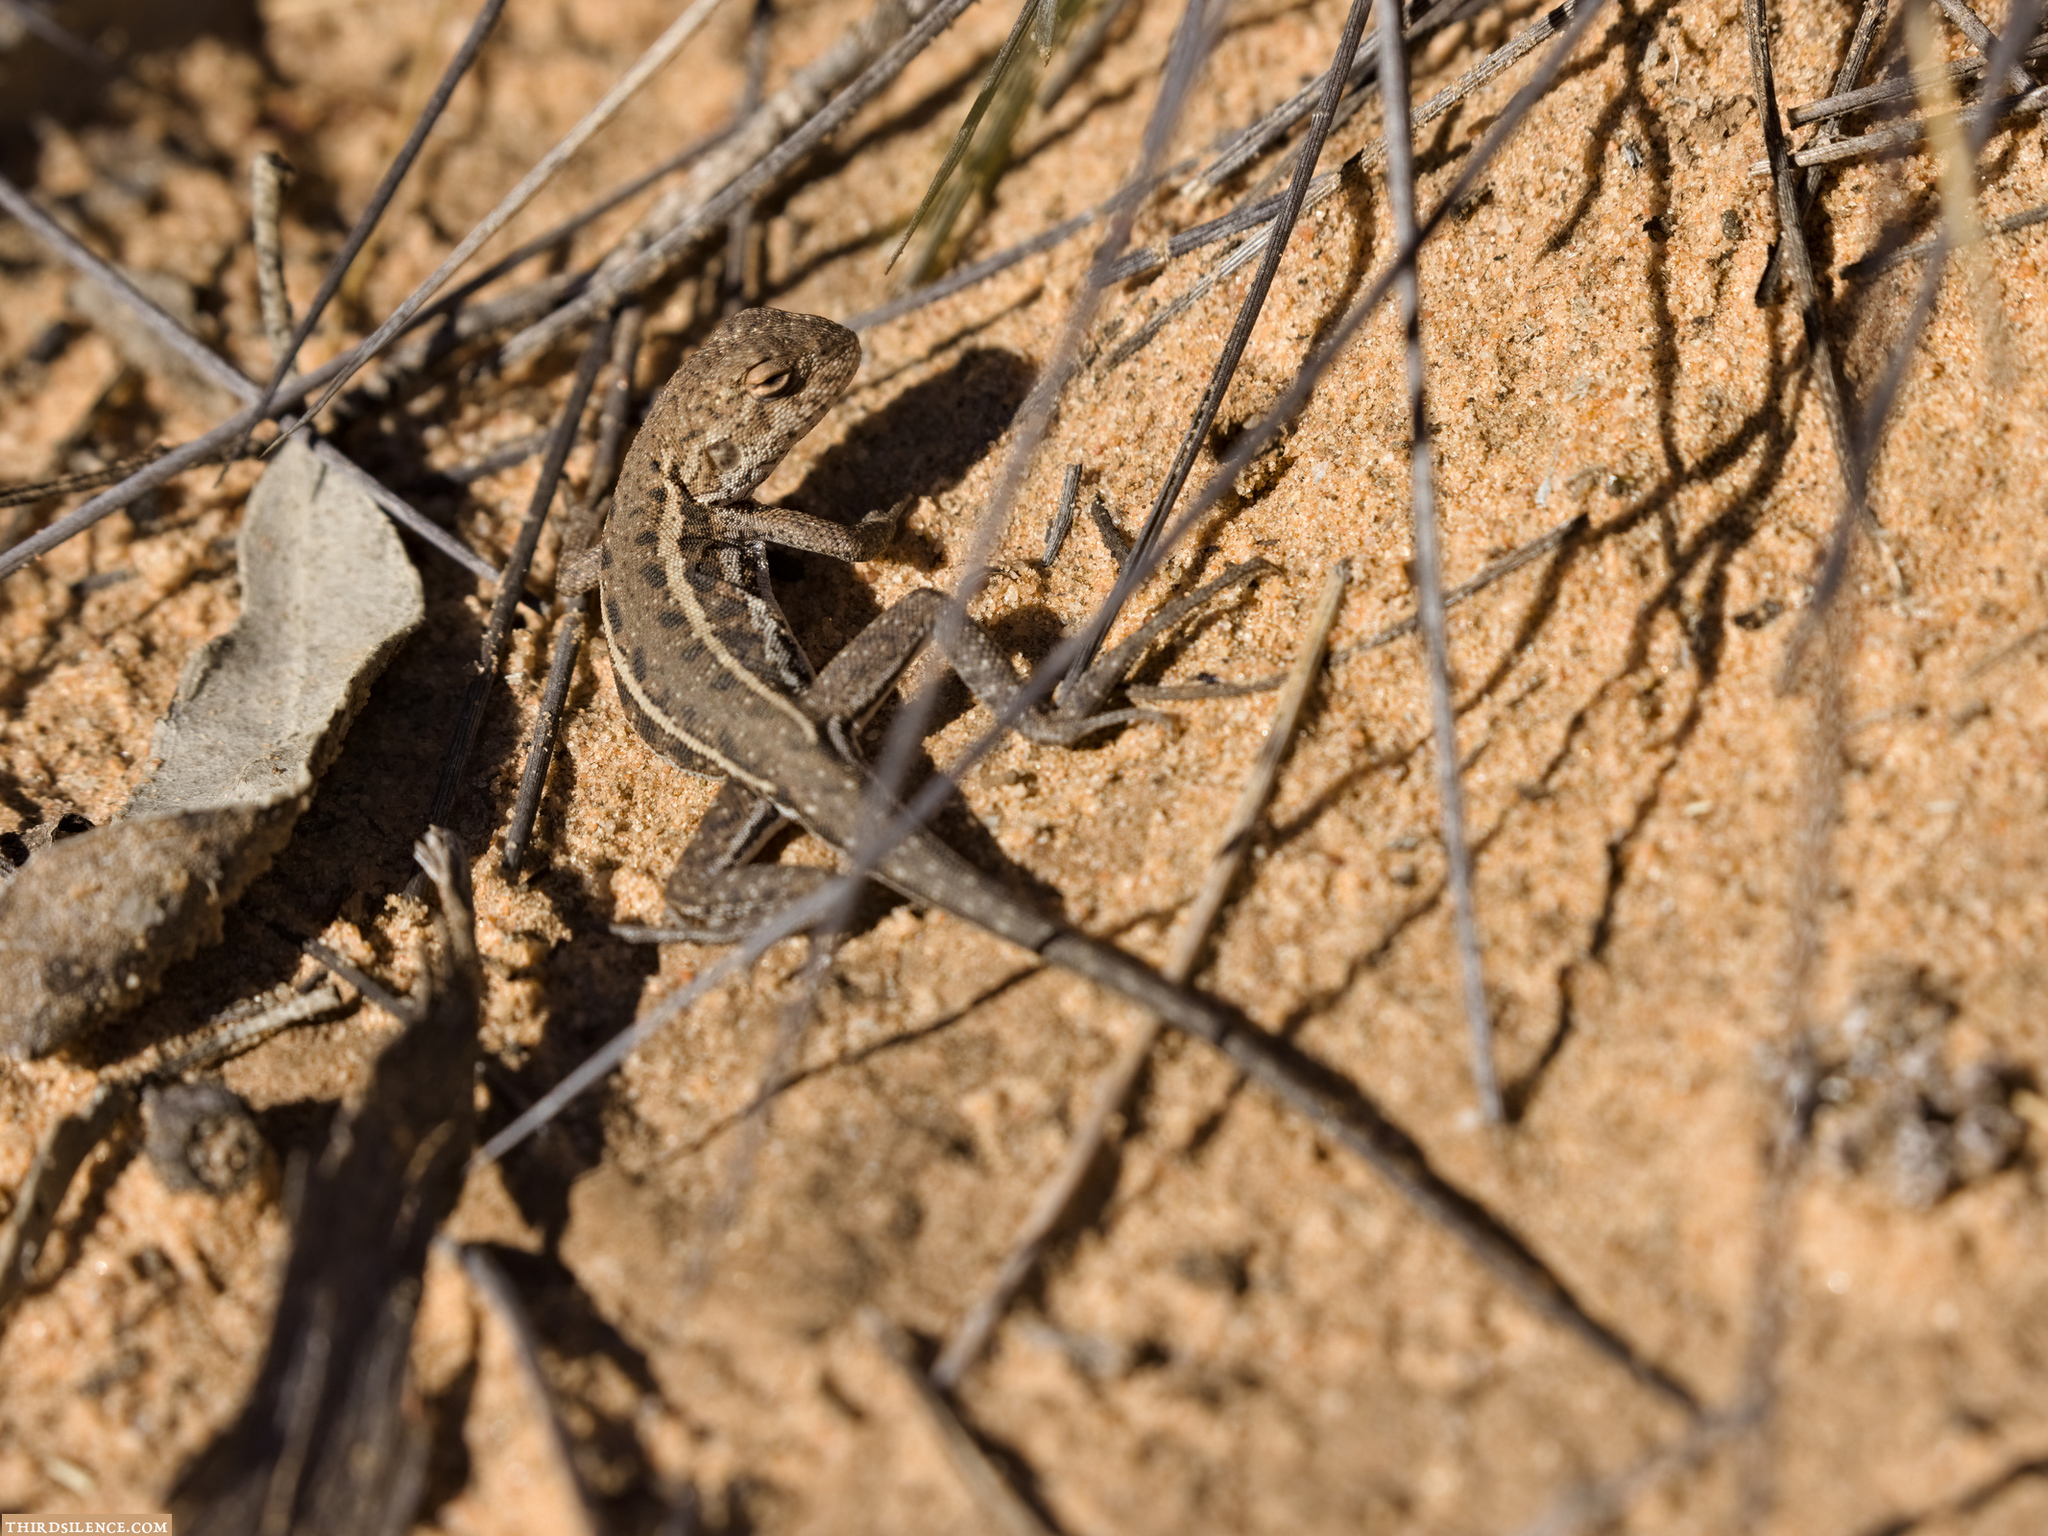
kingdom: Animalia
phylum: Chordata
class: Squamata
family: Agamidae
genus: Ctenophorus
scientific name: Ctenophorus
